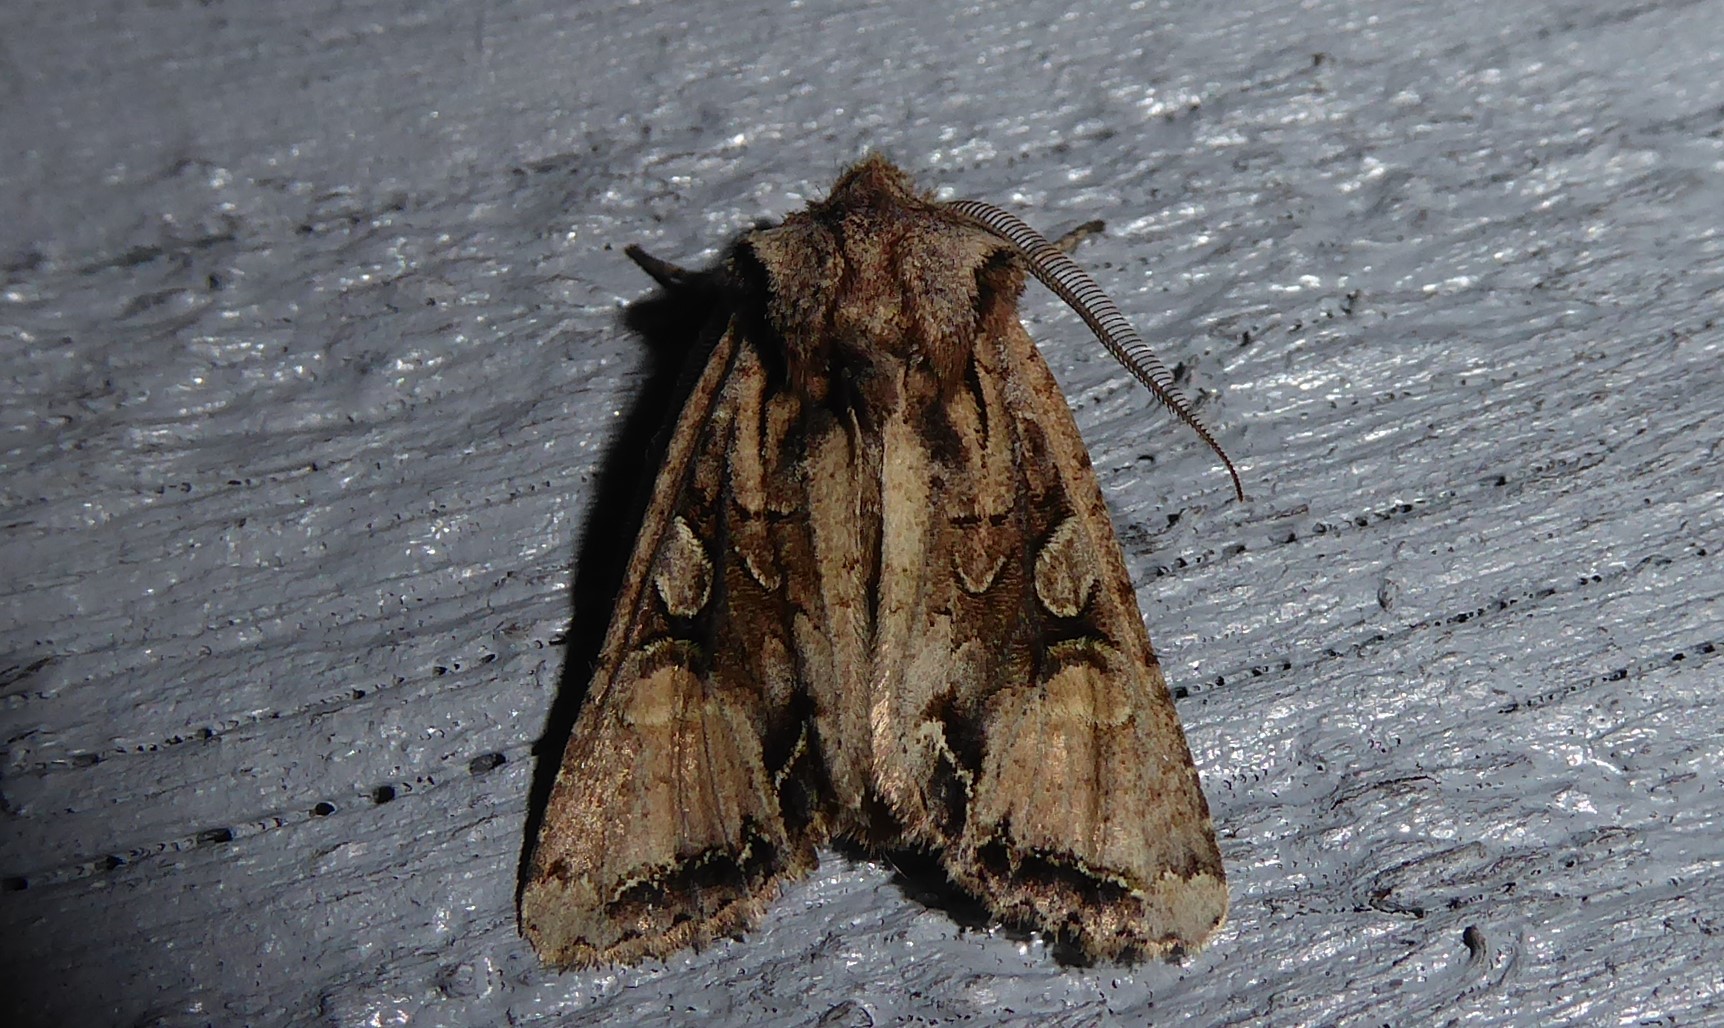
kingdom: Animalia
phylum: Arthropoda
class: Insecta
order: Lepidoptera
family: Noctuidae
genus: Ichneutica
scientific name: Ichneutica
